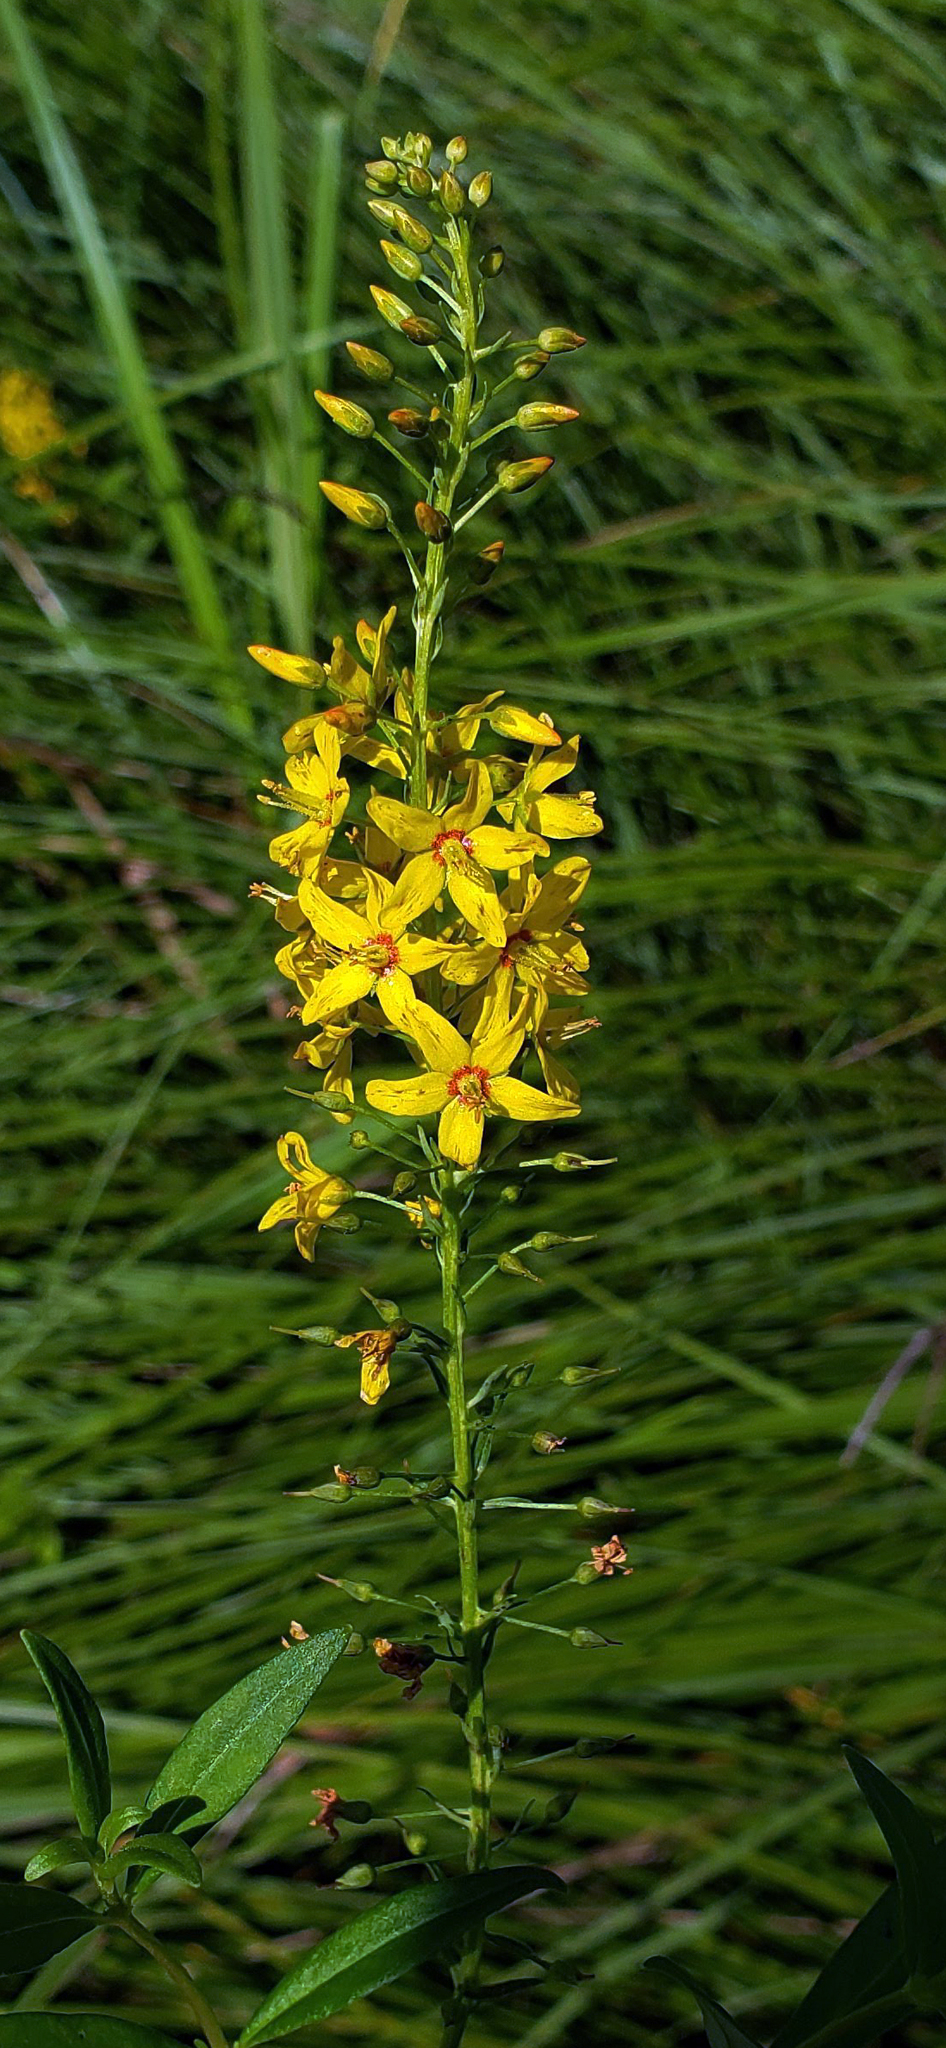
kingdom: Plantae
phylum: Tracheophyta
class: Magnoliopsida
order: Ericales
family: Primulaceae
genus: Lysimachia
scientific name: Lysimachia terrestris
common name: Lake loosestrife
